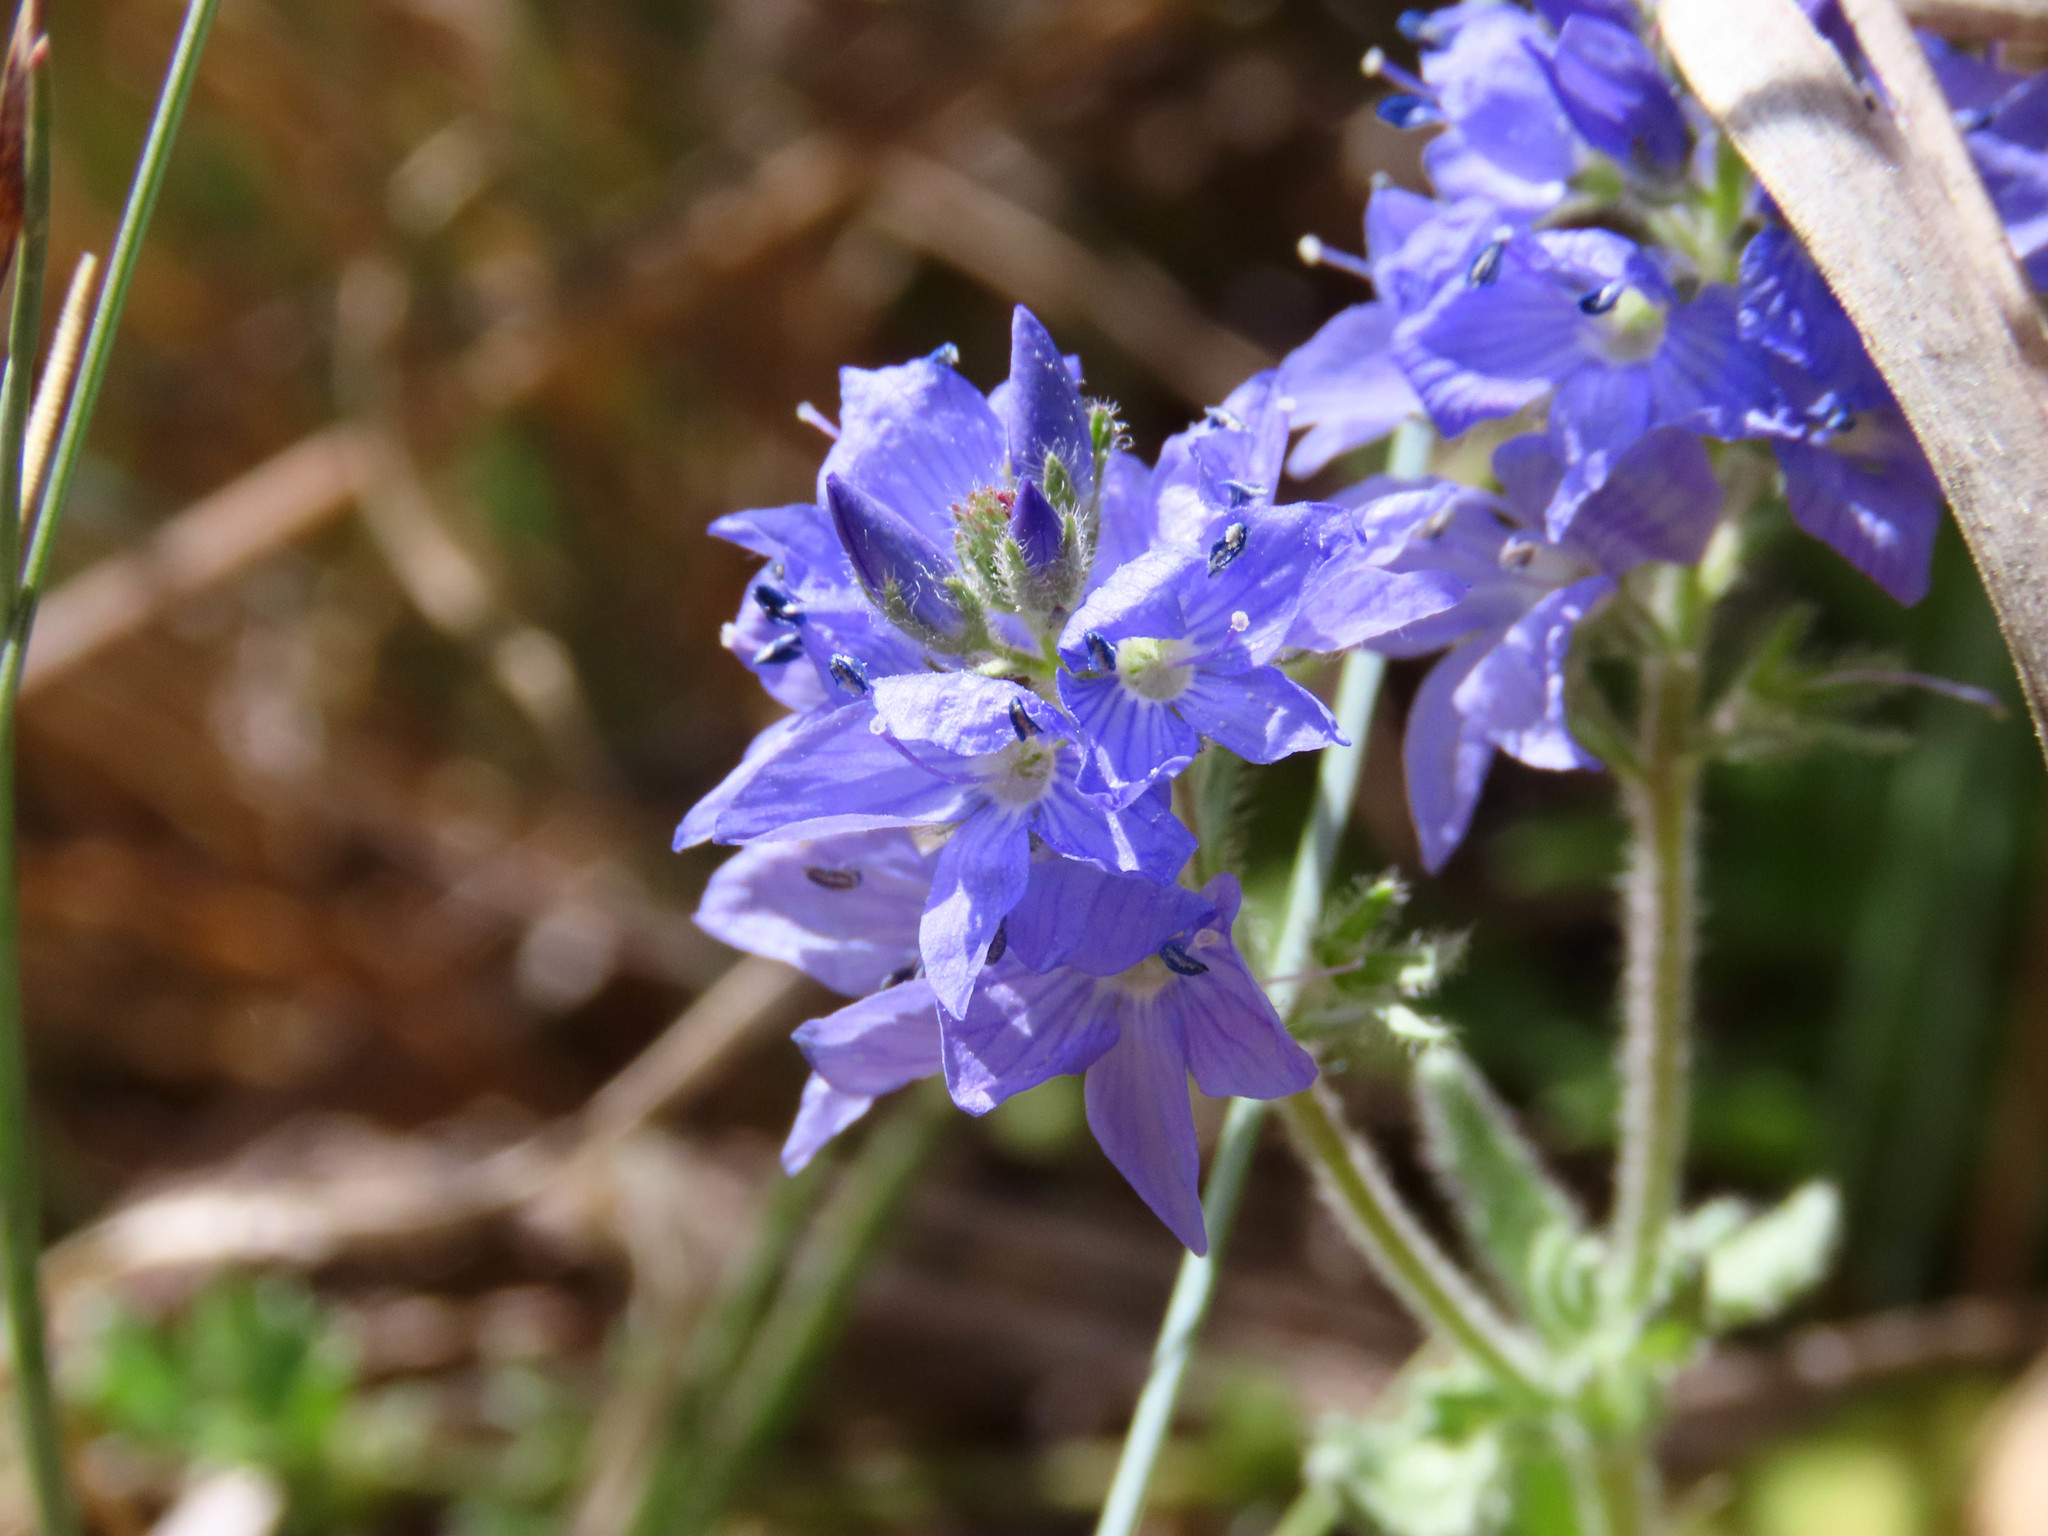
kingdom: Plantae
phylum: Tracheophyta
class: Magnoliopsida
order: Lamiales
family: Plantaginaceae
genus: Veronica
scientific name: Veronica orsiniana
